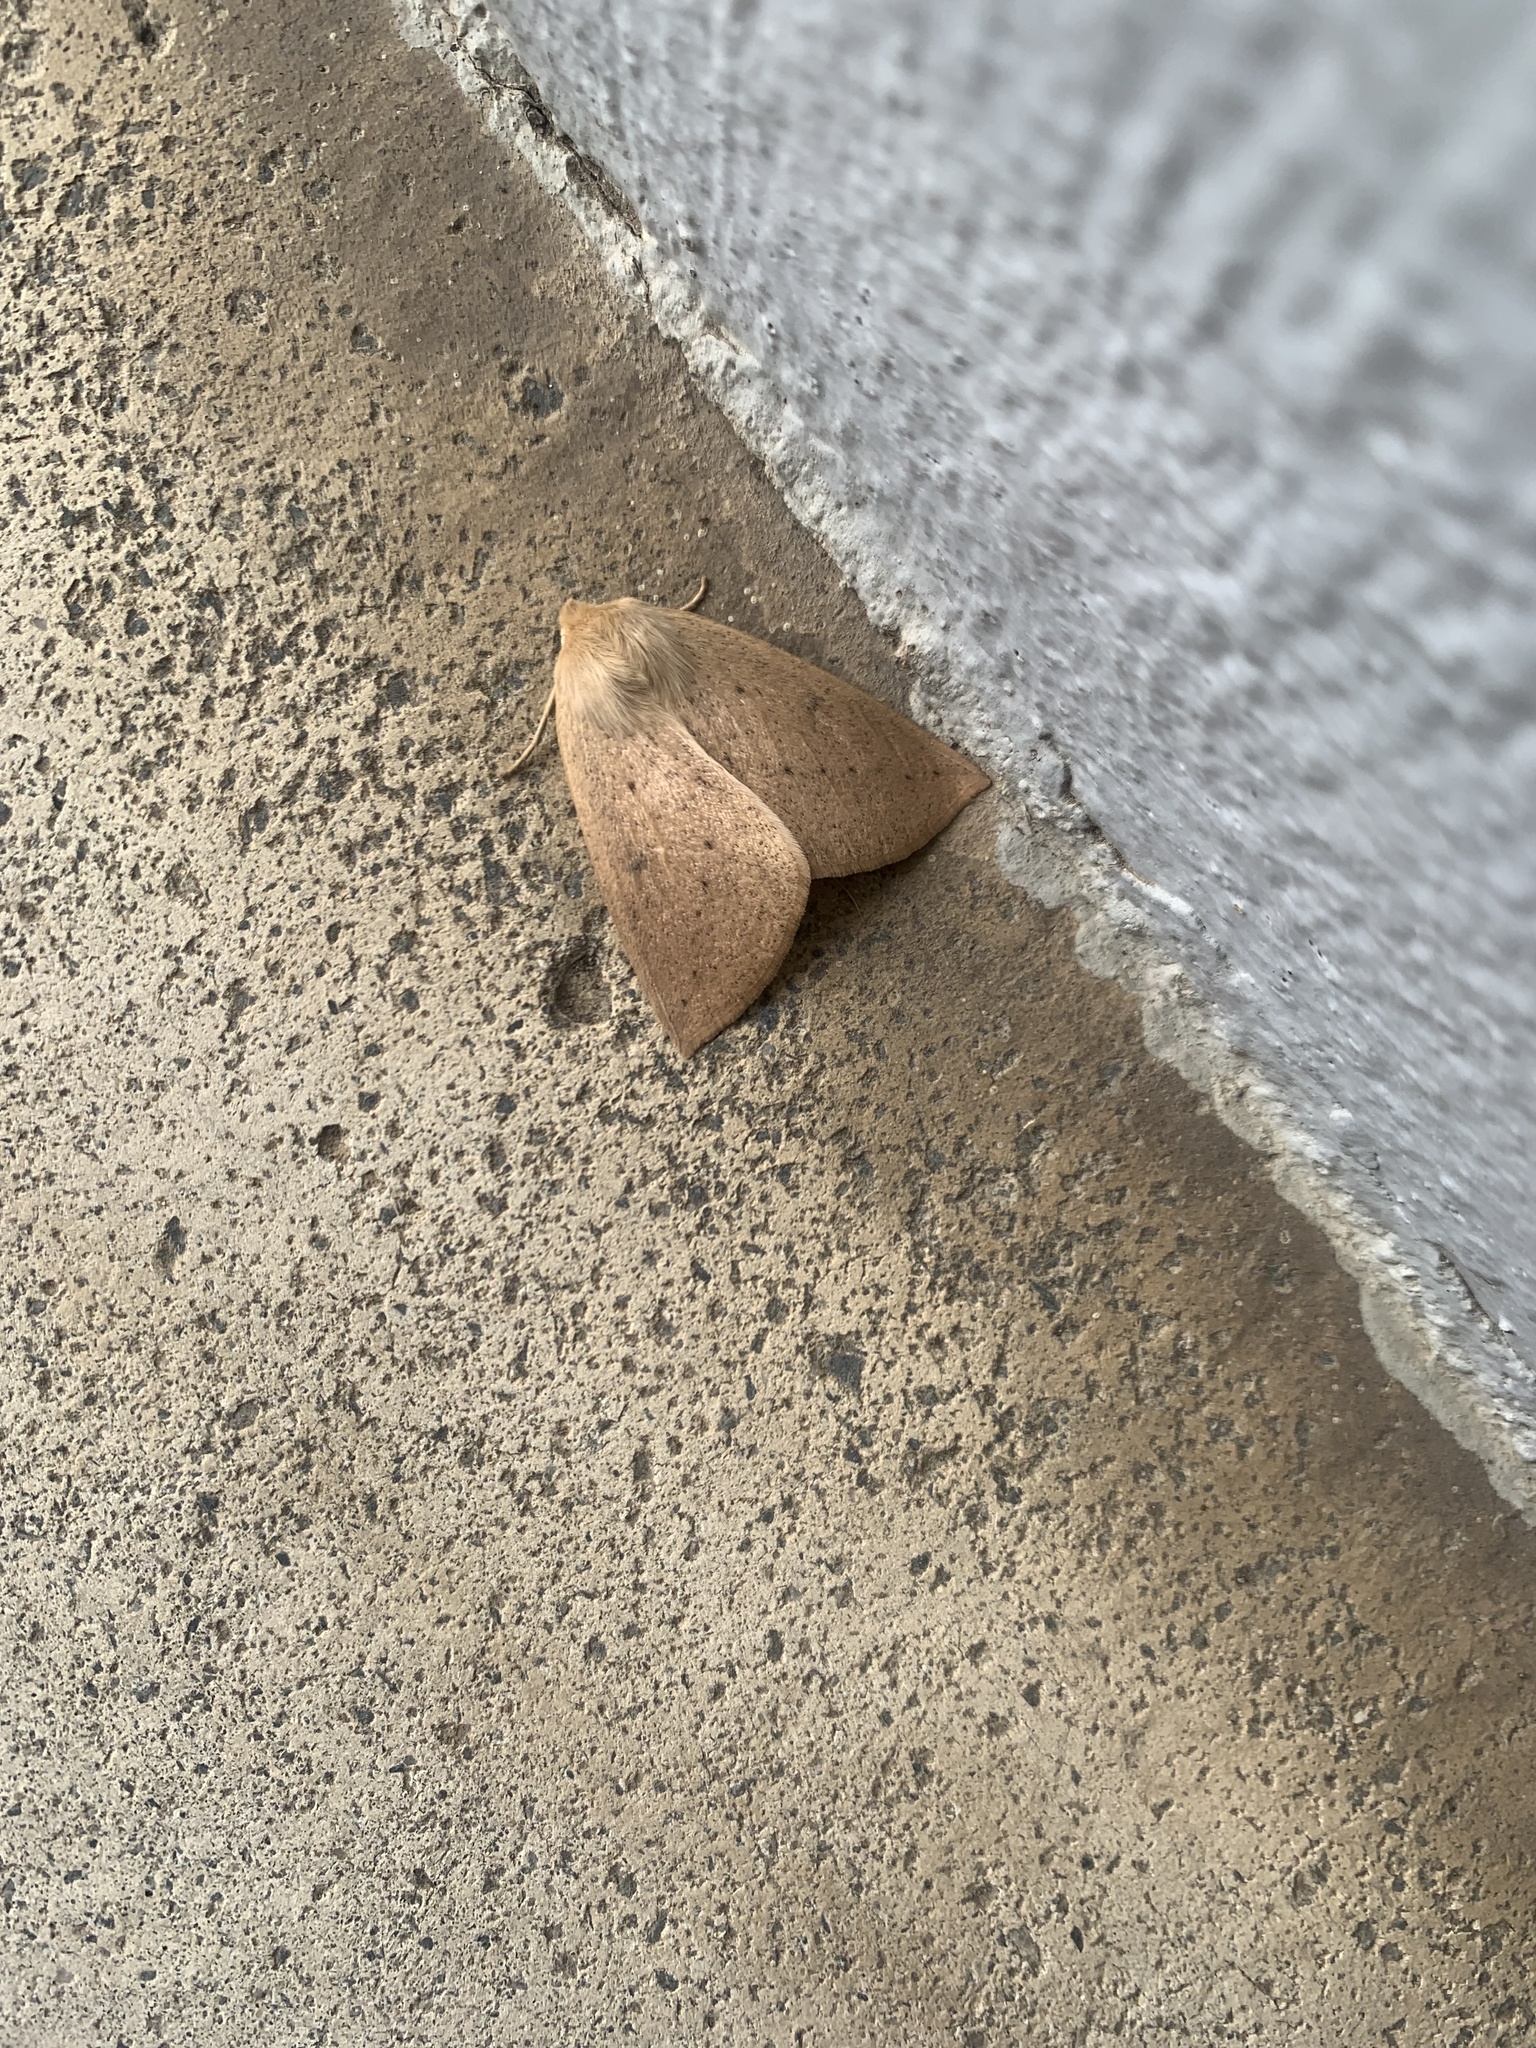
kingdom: Animalia
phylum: Arthropoda
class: Insecta
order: Lepidoptera
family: Geometridae
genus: Descoreba
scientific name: Descoreba simplex
